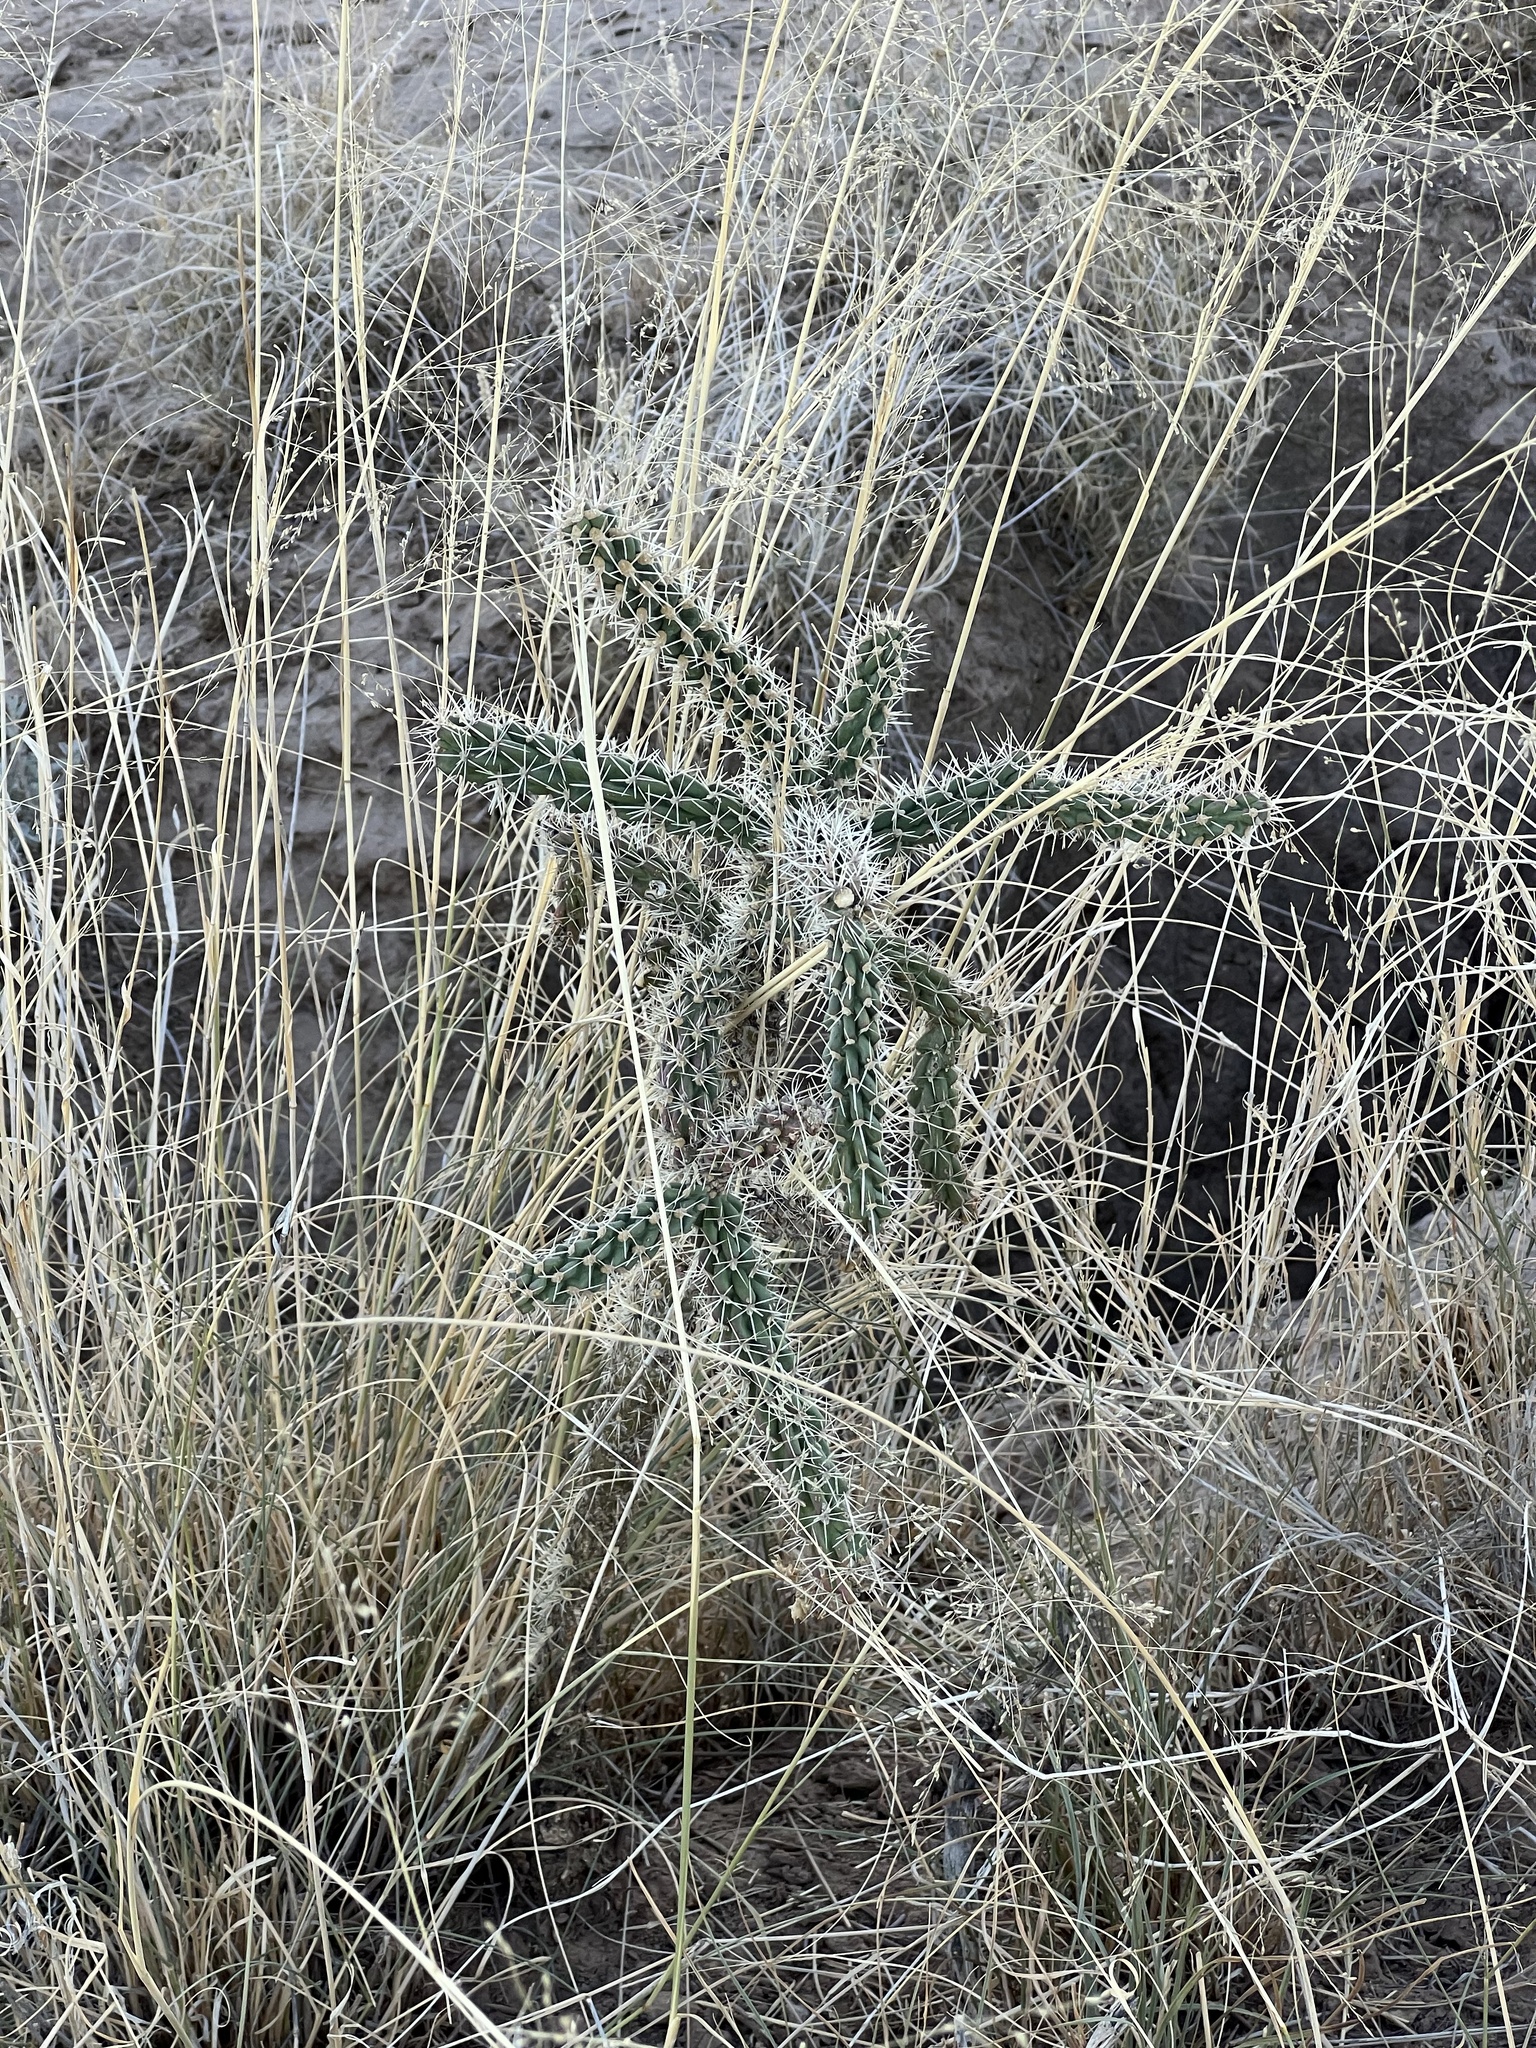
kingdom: Plantae
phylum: Tracheophyta
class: Magnoliopsida
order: Caryophyllales
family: Cactaceae
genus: Cylindropuntia
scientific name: Cylindropuntia imbricata
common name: Candelabrum cactus
